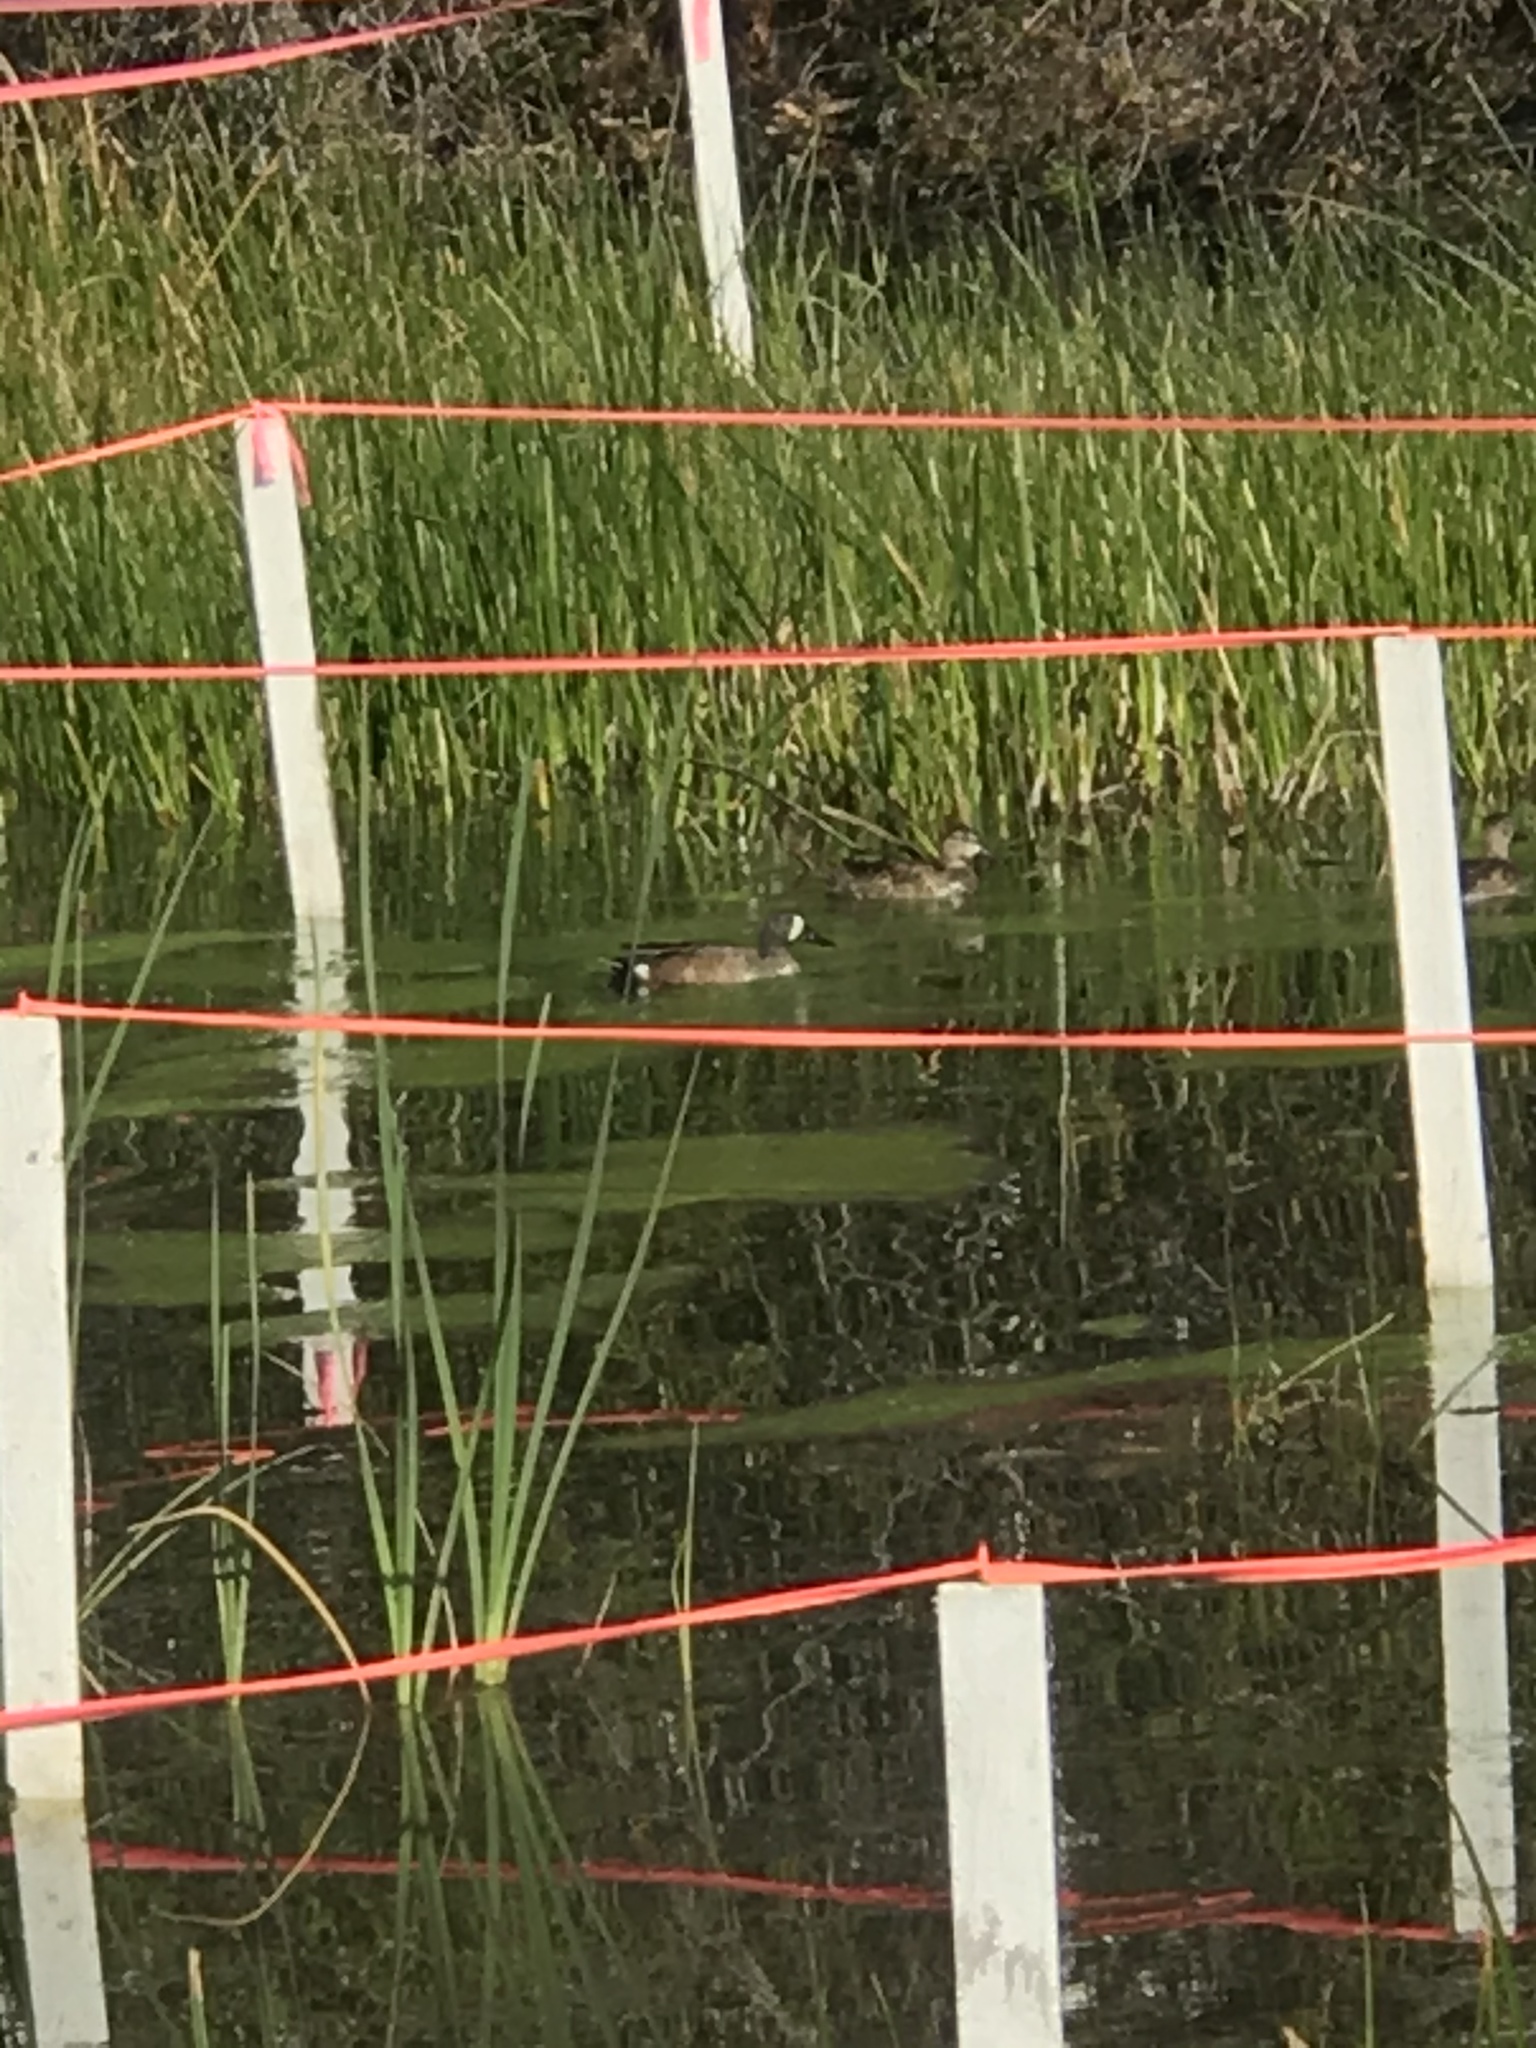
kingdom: Animalia
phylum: Chordata
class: Aves
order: Anseriformes
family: Anatidae
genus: Spatula
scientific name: Spatula discors
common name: Blue-winged teal
